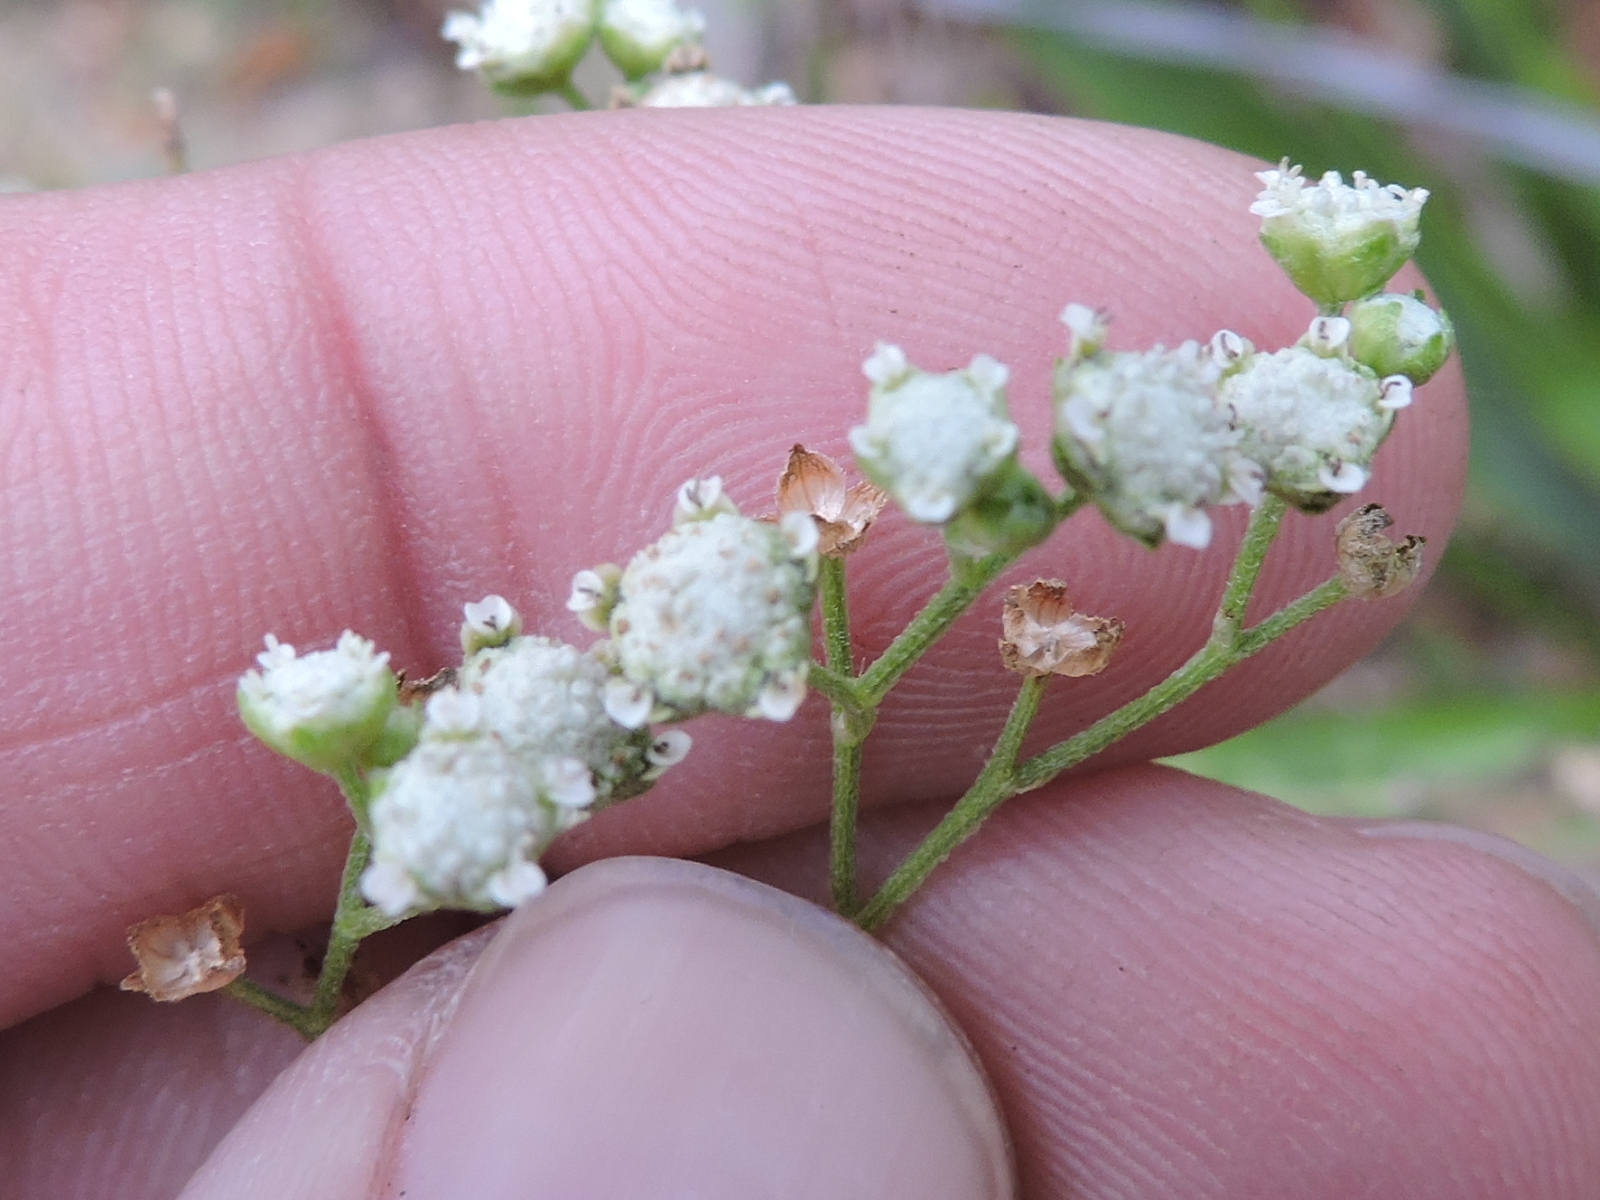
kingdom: Plantae
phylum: Tracheophyta
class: Magnoliopsida
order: Asterales
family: Asteraceae
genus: Parthenium
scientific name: Parthenium hysterophorus
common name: Santa maria feverfew
